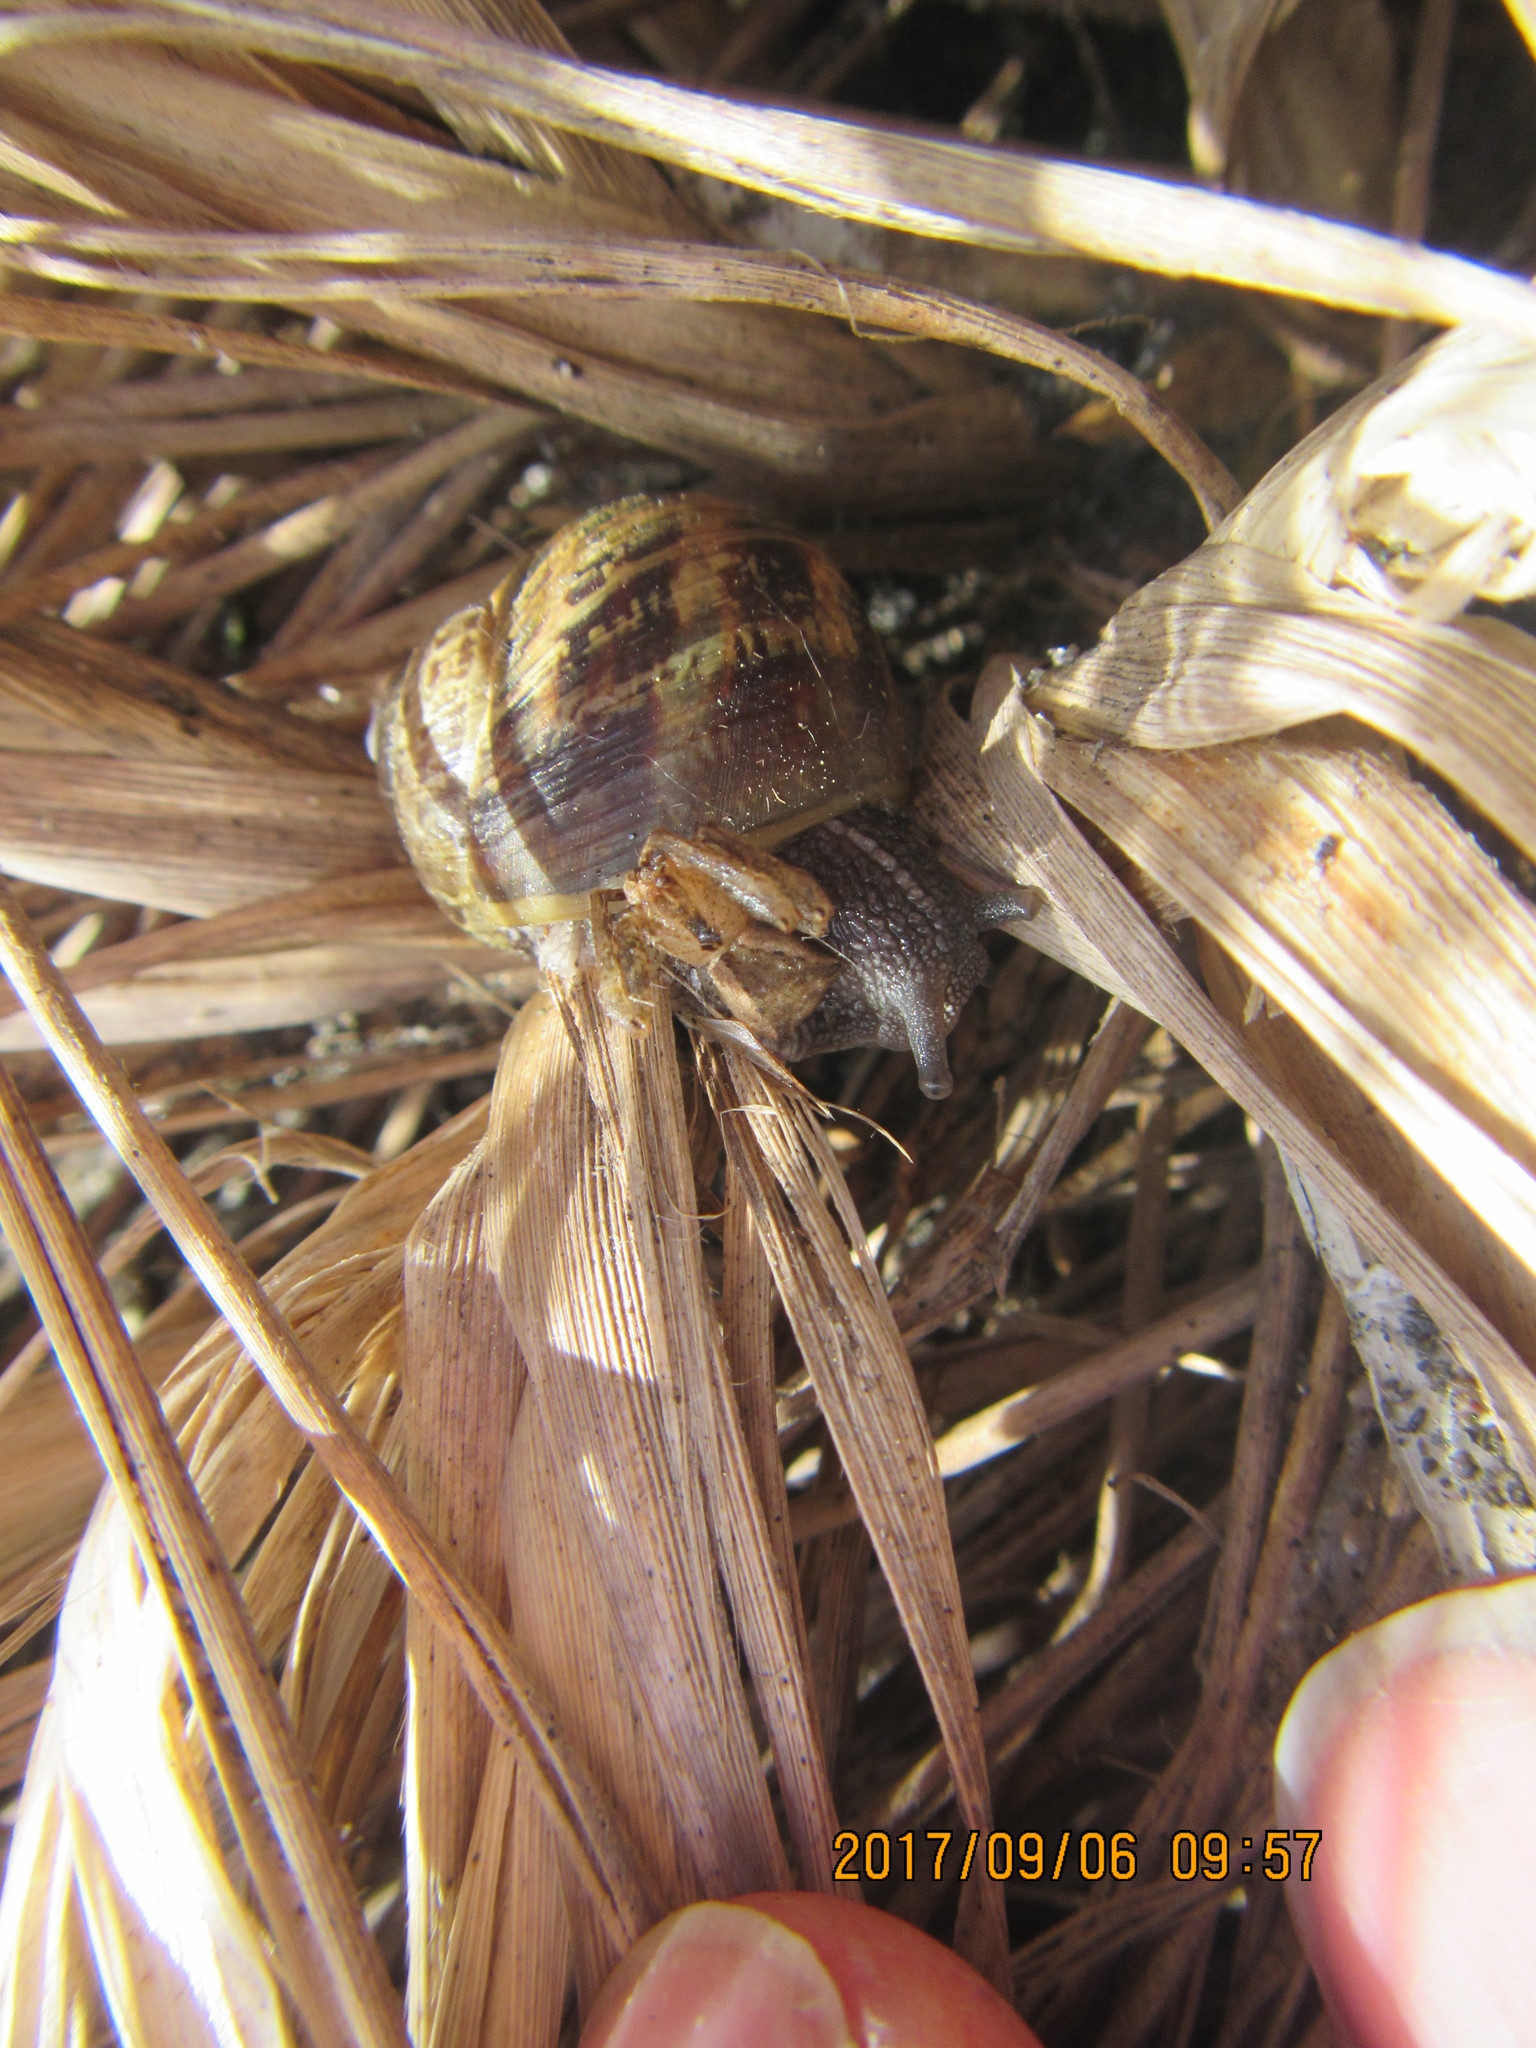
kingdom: Animalia
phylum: Arthropoda
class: Arachnida
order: Araneae
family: Thomisidae
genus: Sidymella
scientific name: Sidymella trapezia
